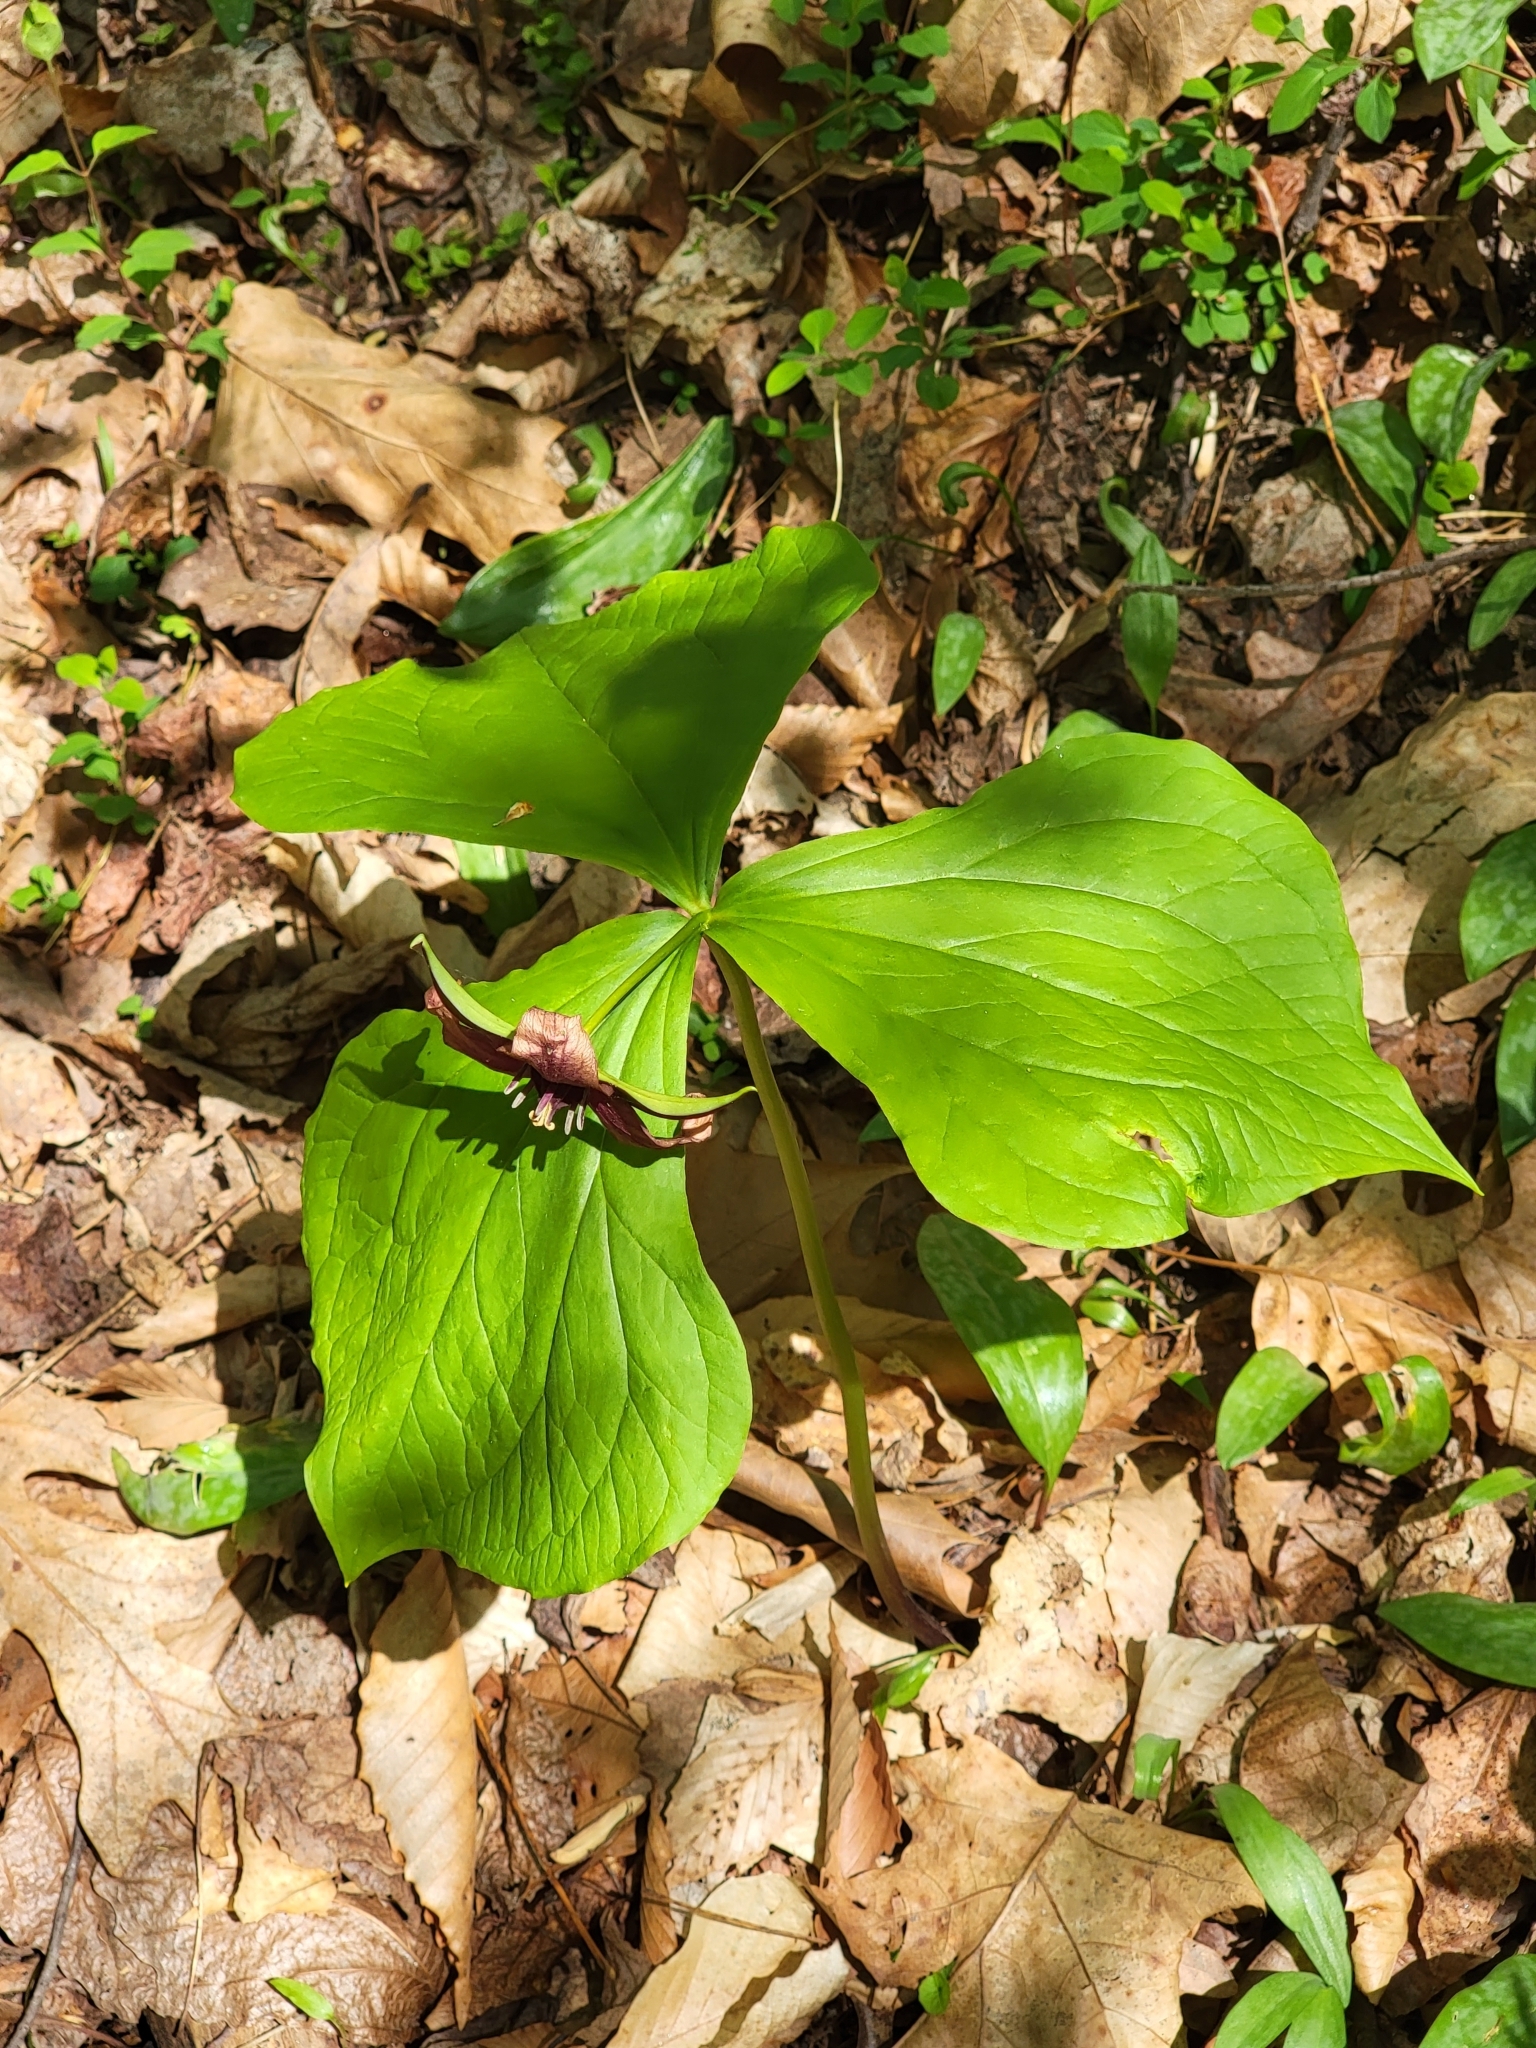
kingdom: Plantae
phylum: Tracheophyta
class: Liliopsida
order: Liliales
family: Melanthiaceae
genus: Trillium
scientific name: Trillium erectum
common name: Purple trillium
